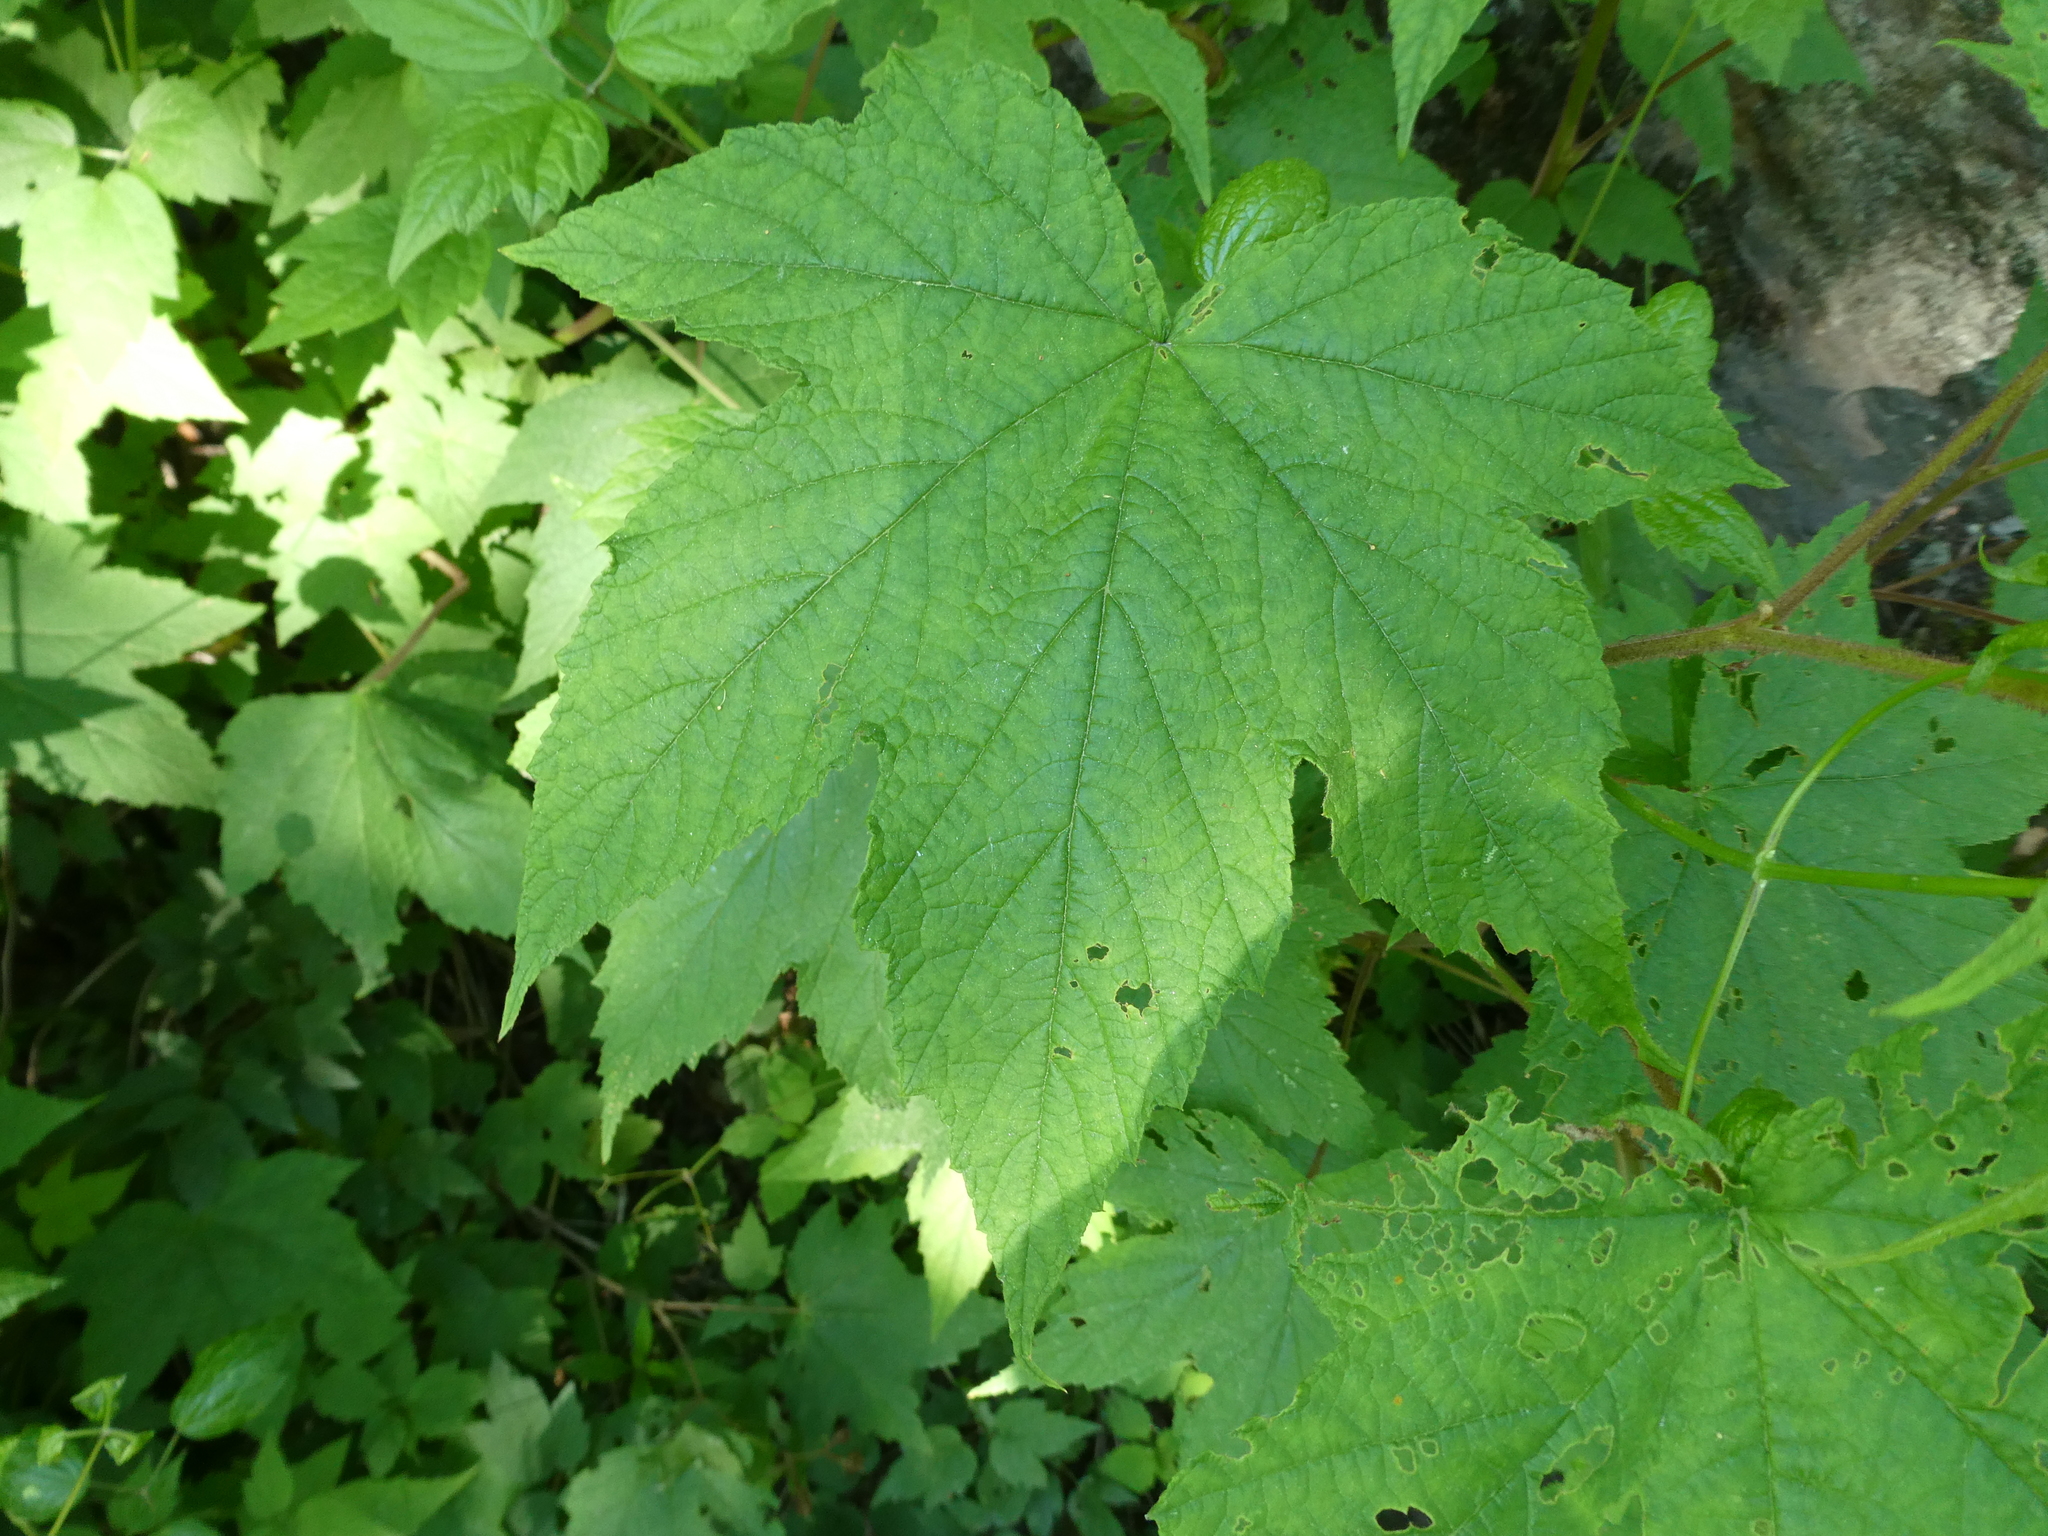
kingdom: Plantae
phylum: Tracheophyta
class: Magnoliopsida
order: Rosales
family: Rosaceae
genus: Rubus
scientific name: Rubus odoratus
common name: Purple-flowered raspberry
